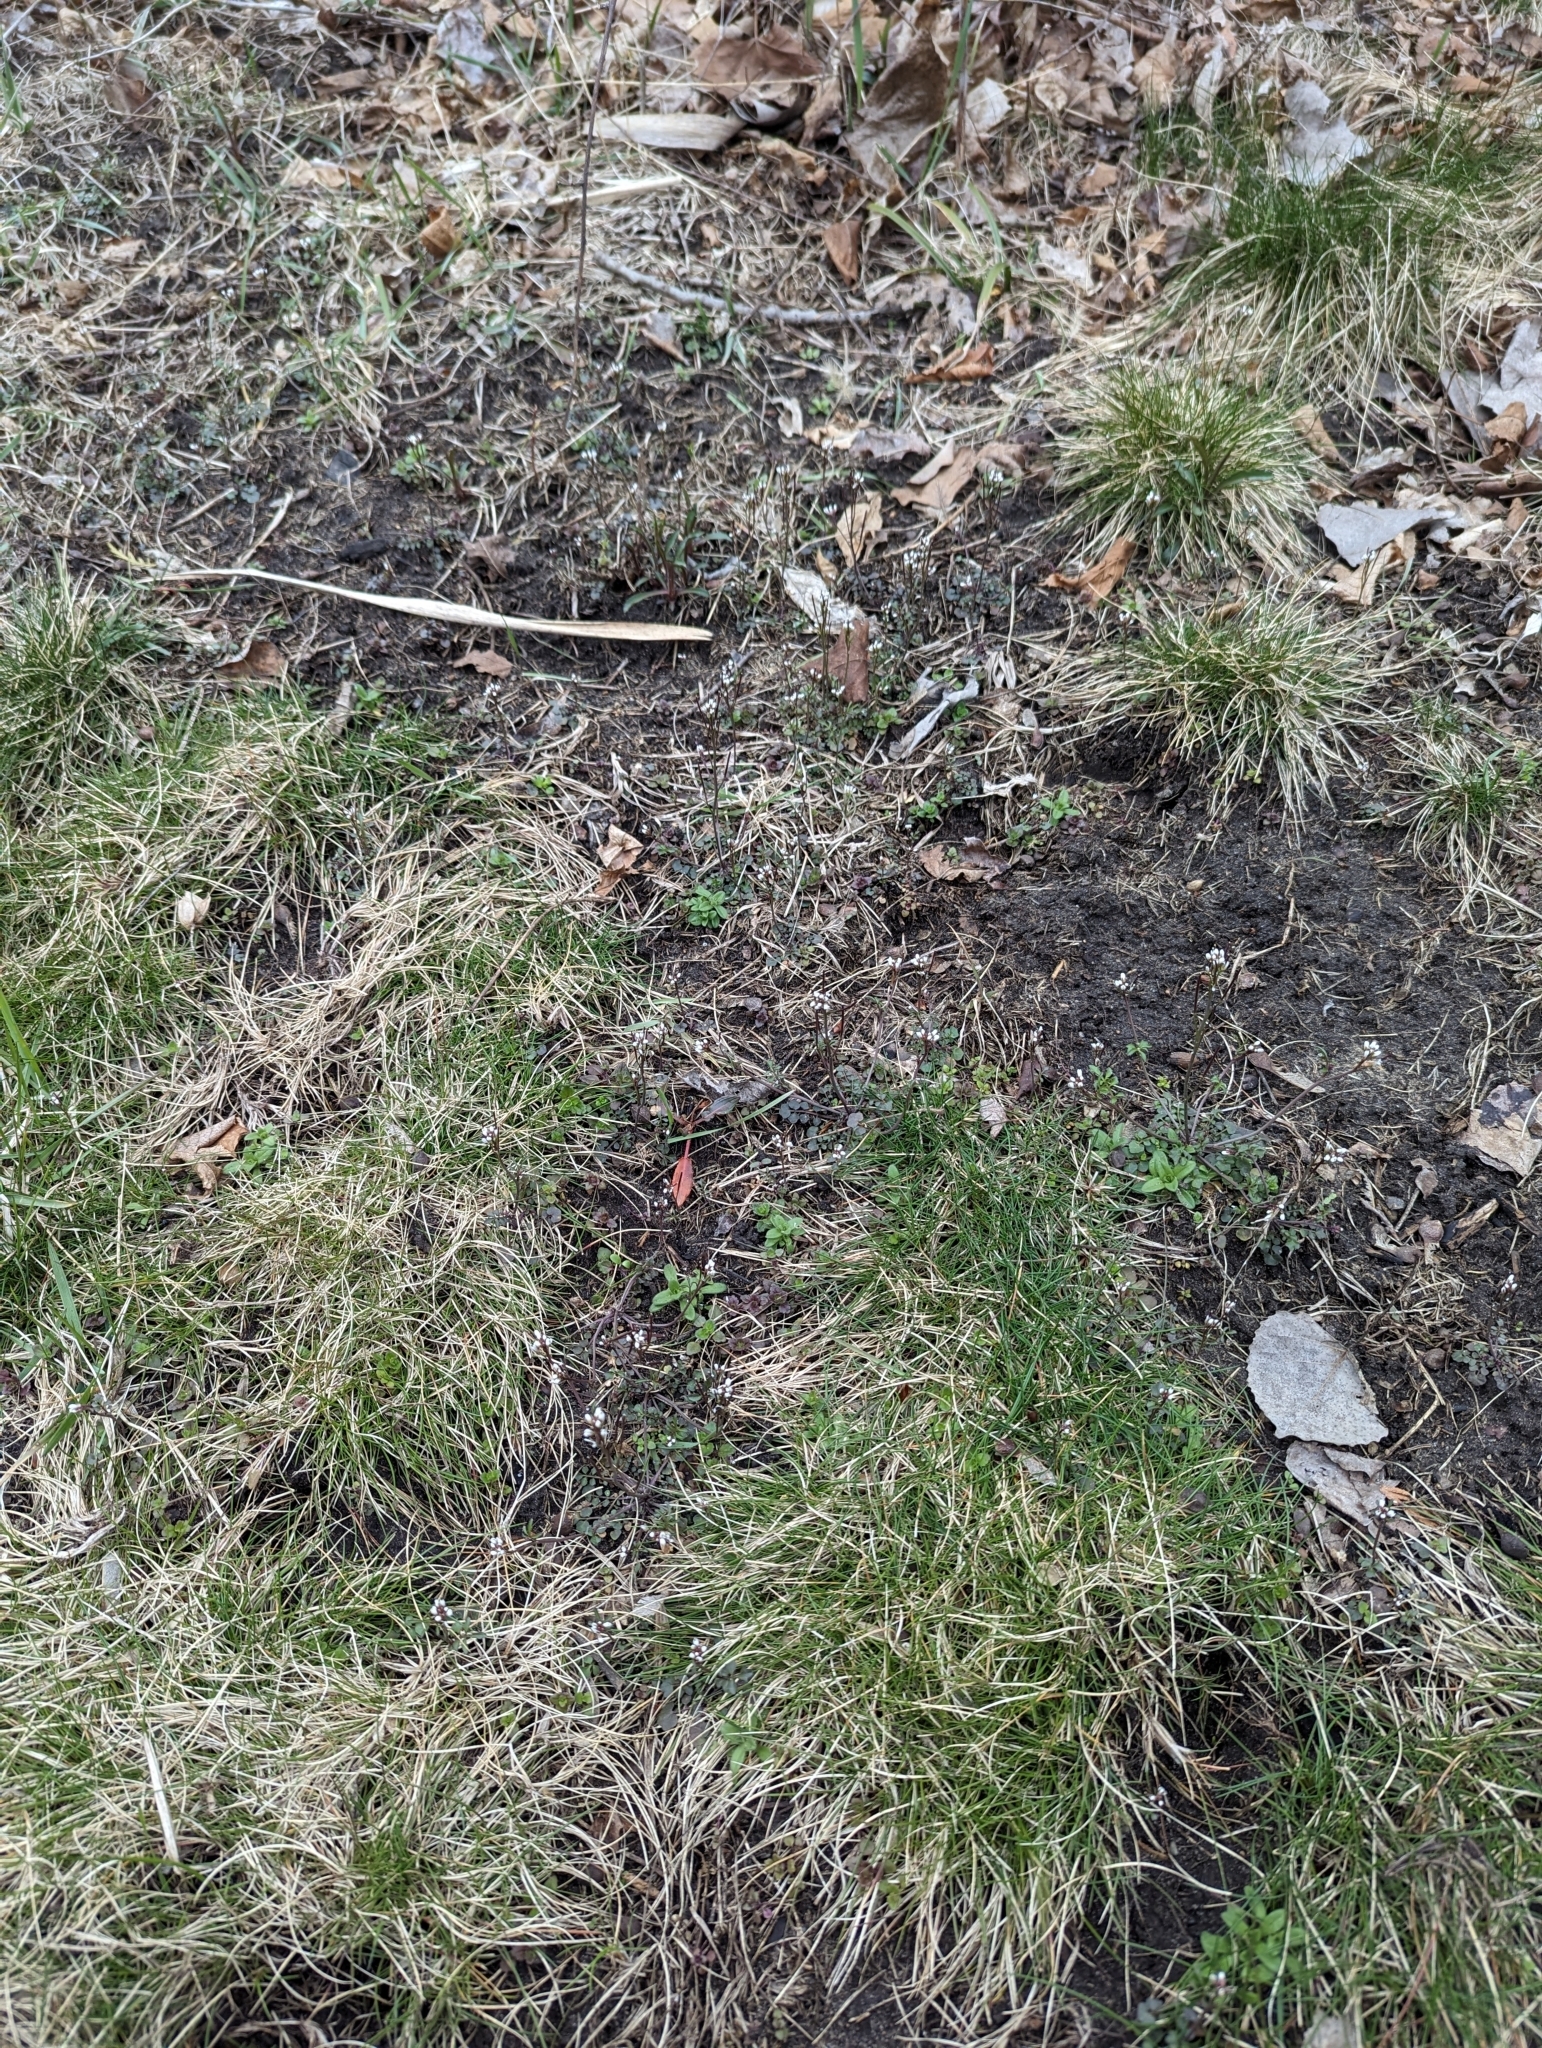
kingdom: Plantae
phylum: Tracheophyta
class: Magnoliopsida
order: Brassicales
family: Brassicaceae
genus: Cardamine
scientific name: Cardamine hirsuta
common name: Hairy bittercress
